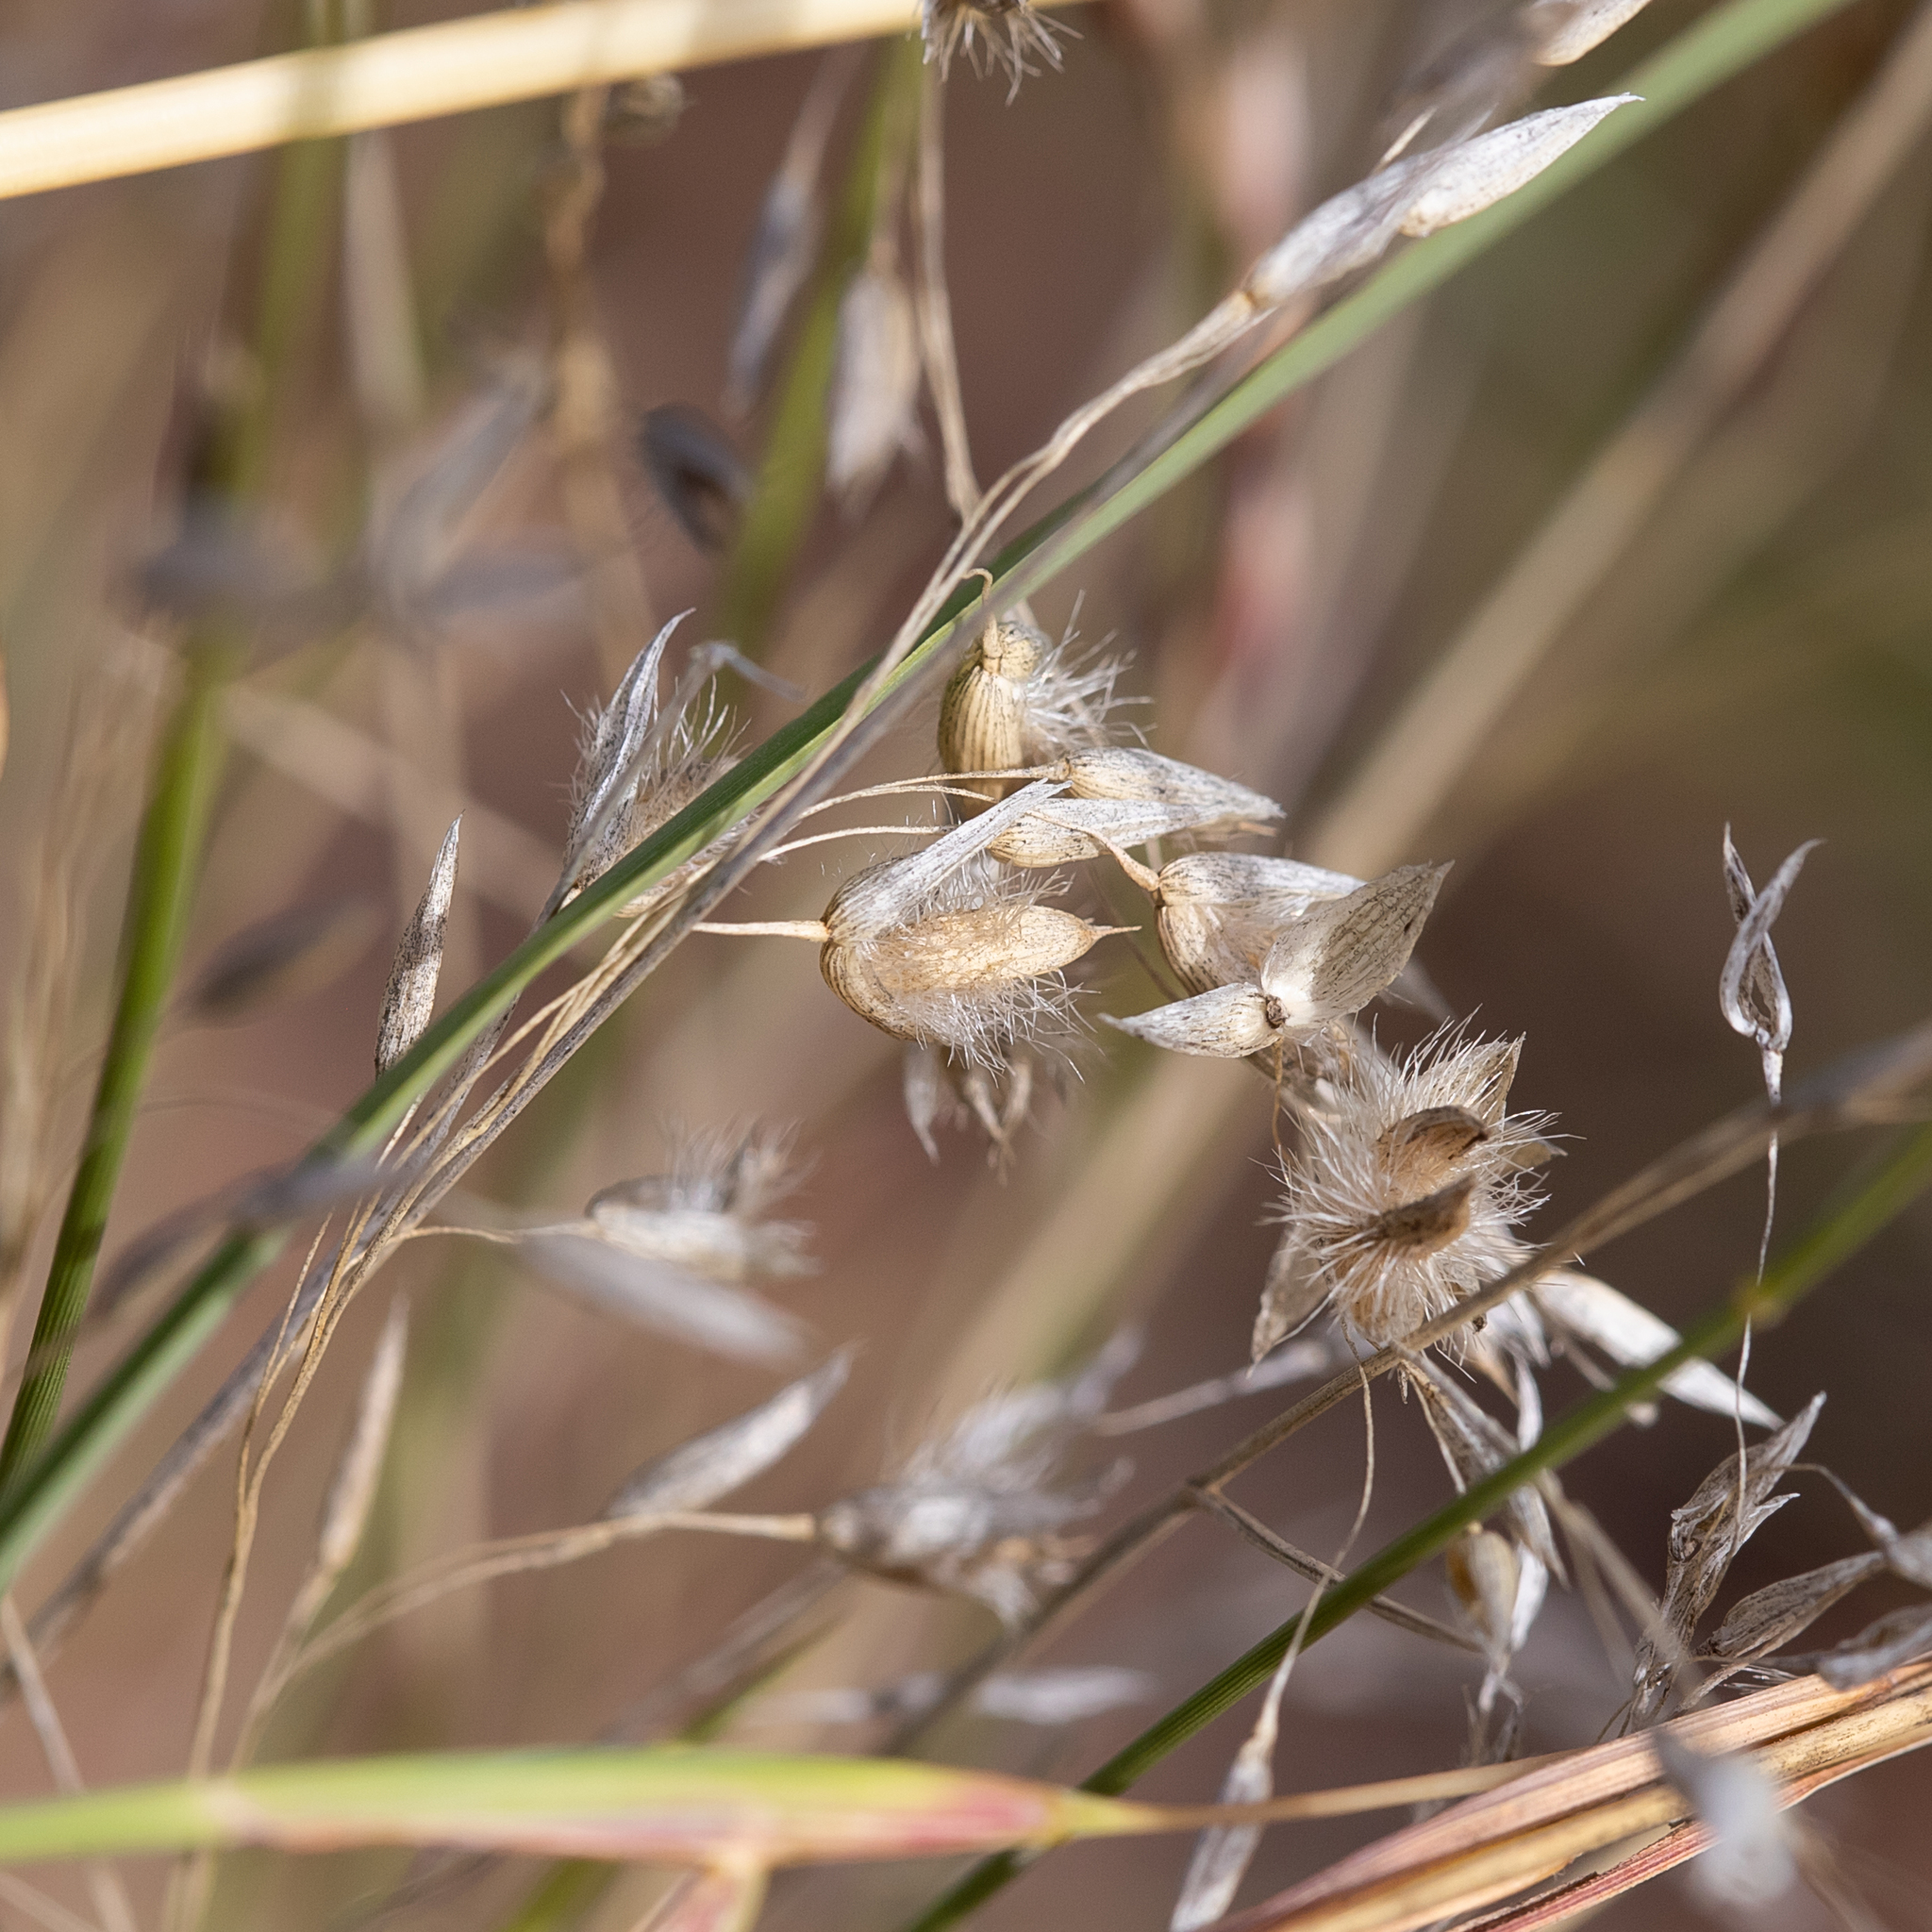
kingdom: Plantae
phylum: Tracheophyta
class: Liliopsida
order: Poales
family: Poaceae
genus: Eriachne
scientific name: Eriachne mucronata
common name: Mountain wanderrie grass
